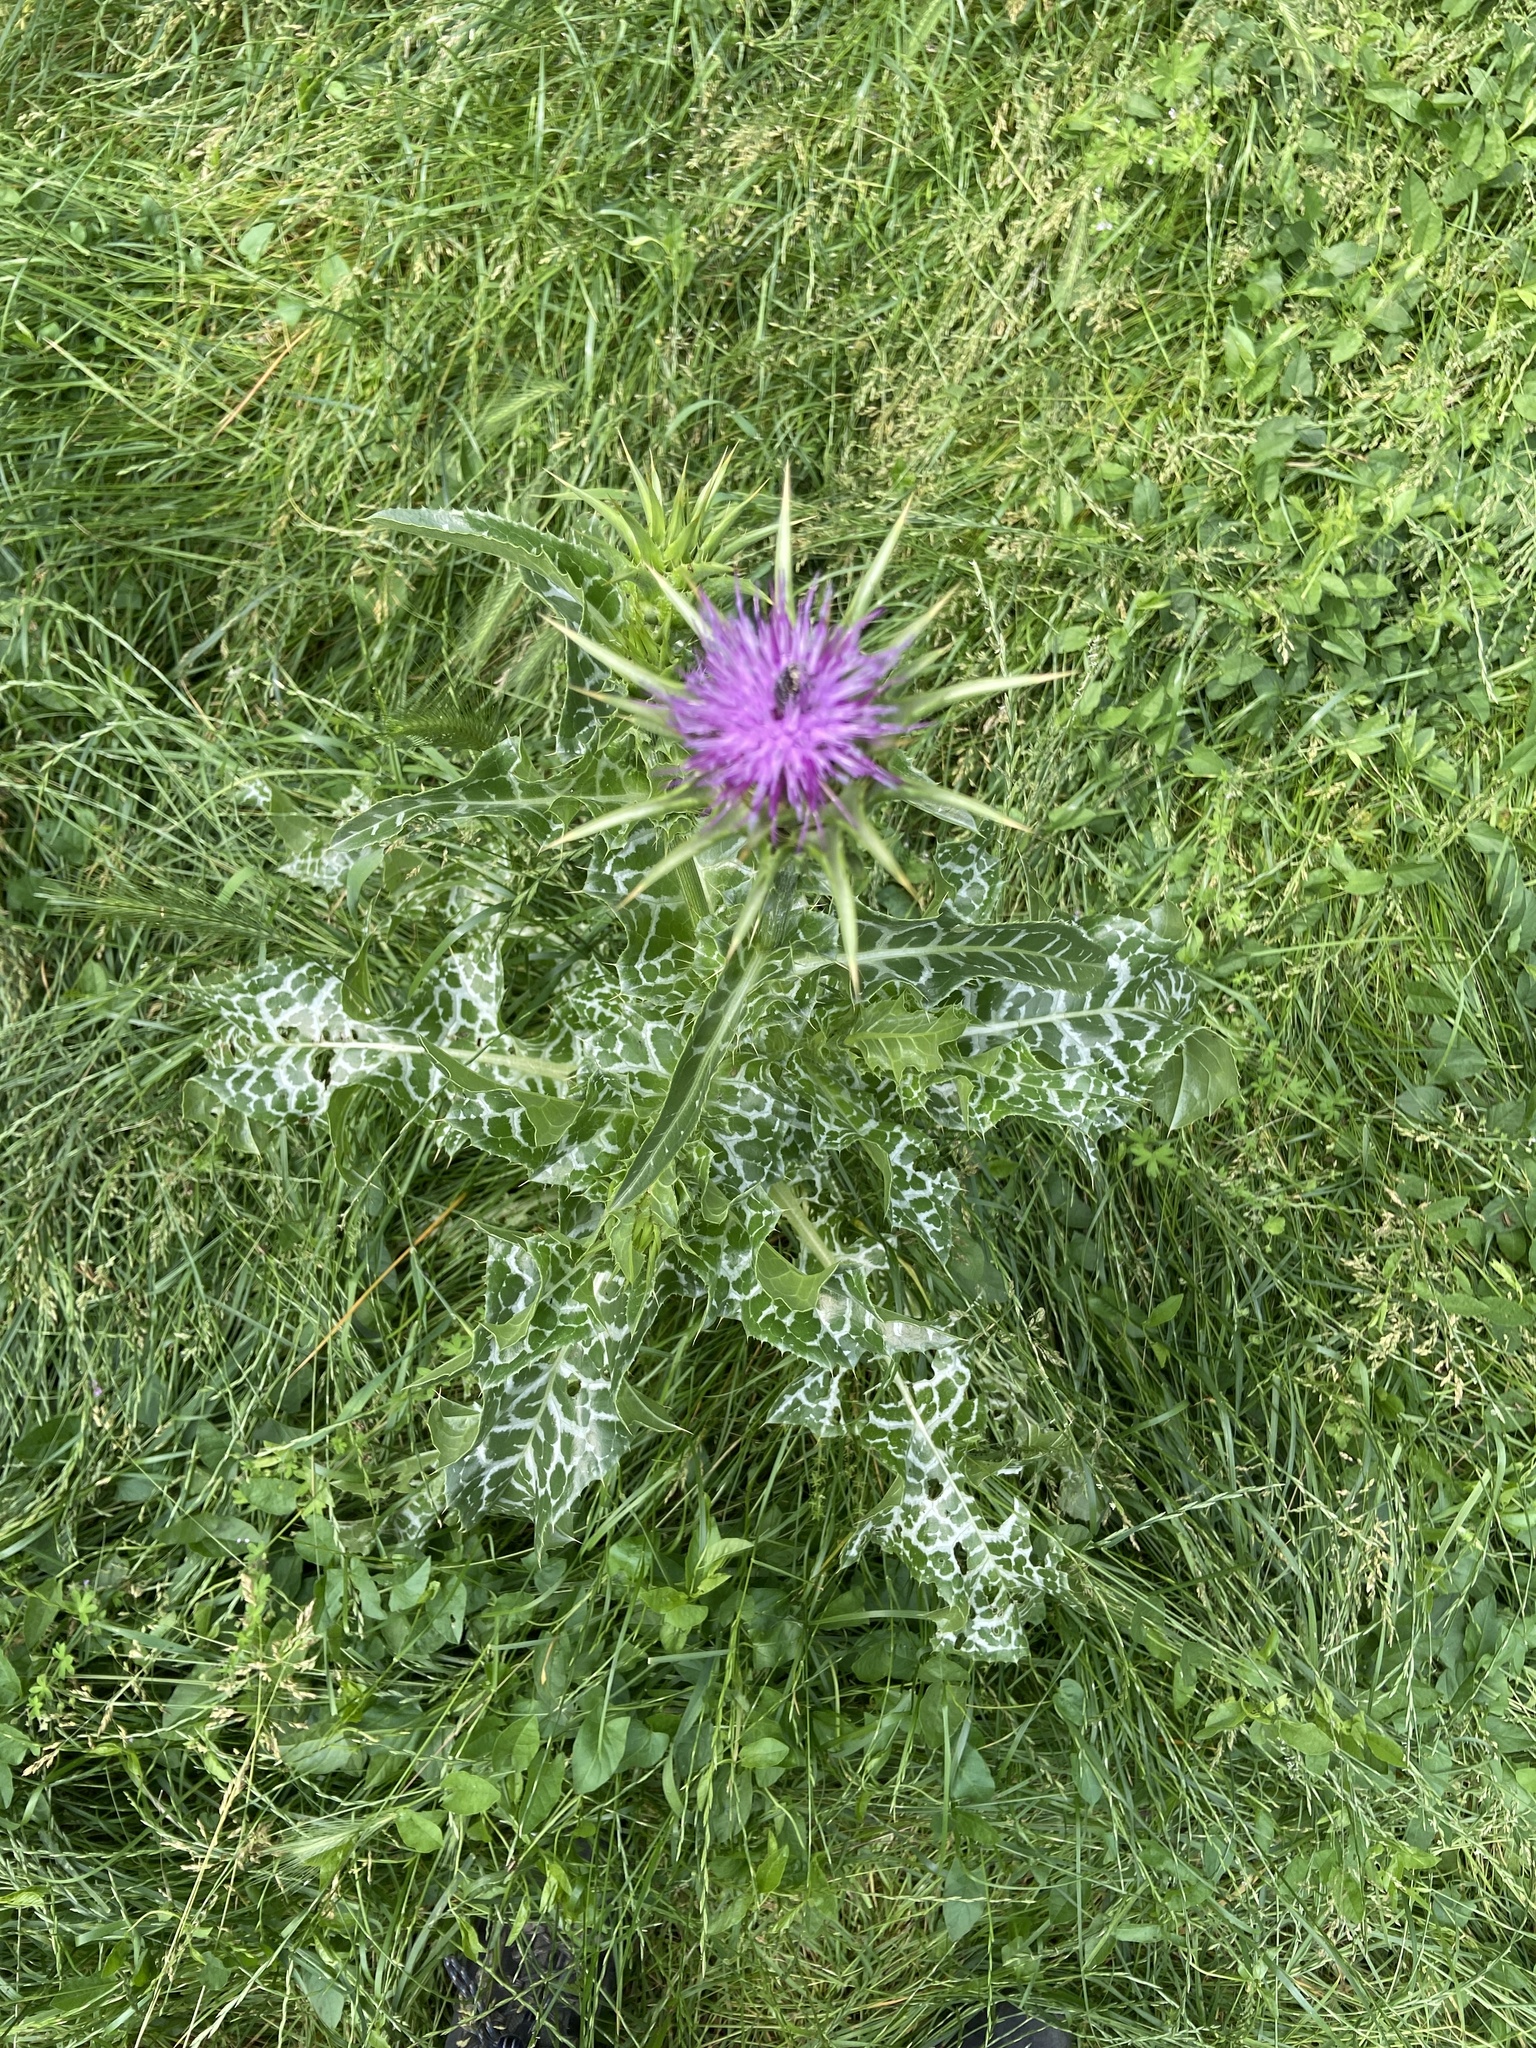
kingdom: Plantae
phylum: Tracheophyta
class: Magnoliopsida
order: Asterales
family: Asteraceae
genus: Silybum
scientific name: Silybum marianum
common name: Milk thistle
